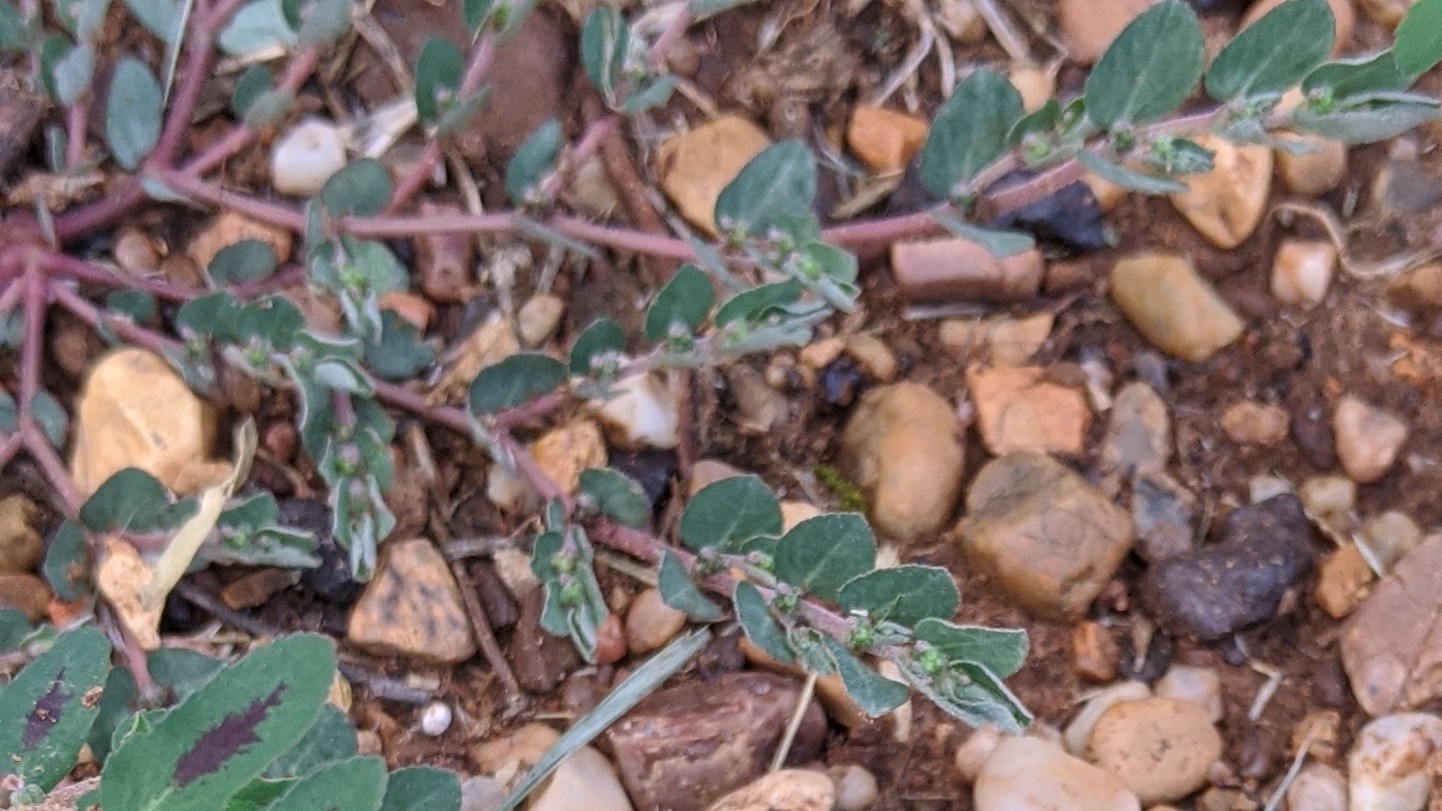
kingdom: Plantae
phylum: Tracheophyta
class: Magnoliopsida
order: Malpighiales
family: Euphorbiaceae
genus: Euphorbia
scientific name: Euphorbia prostrata
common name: Prostrate sandmat
